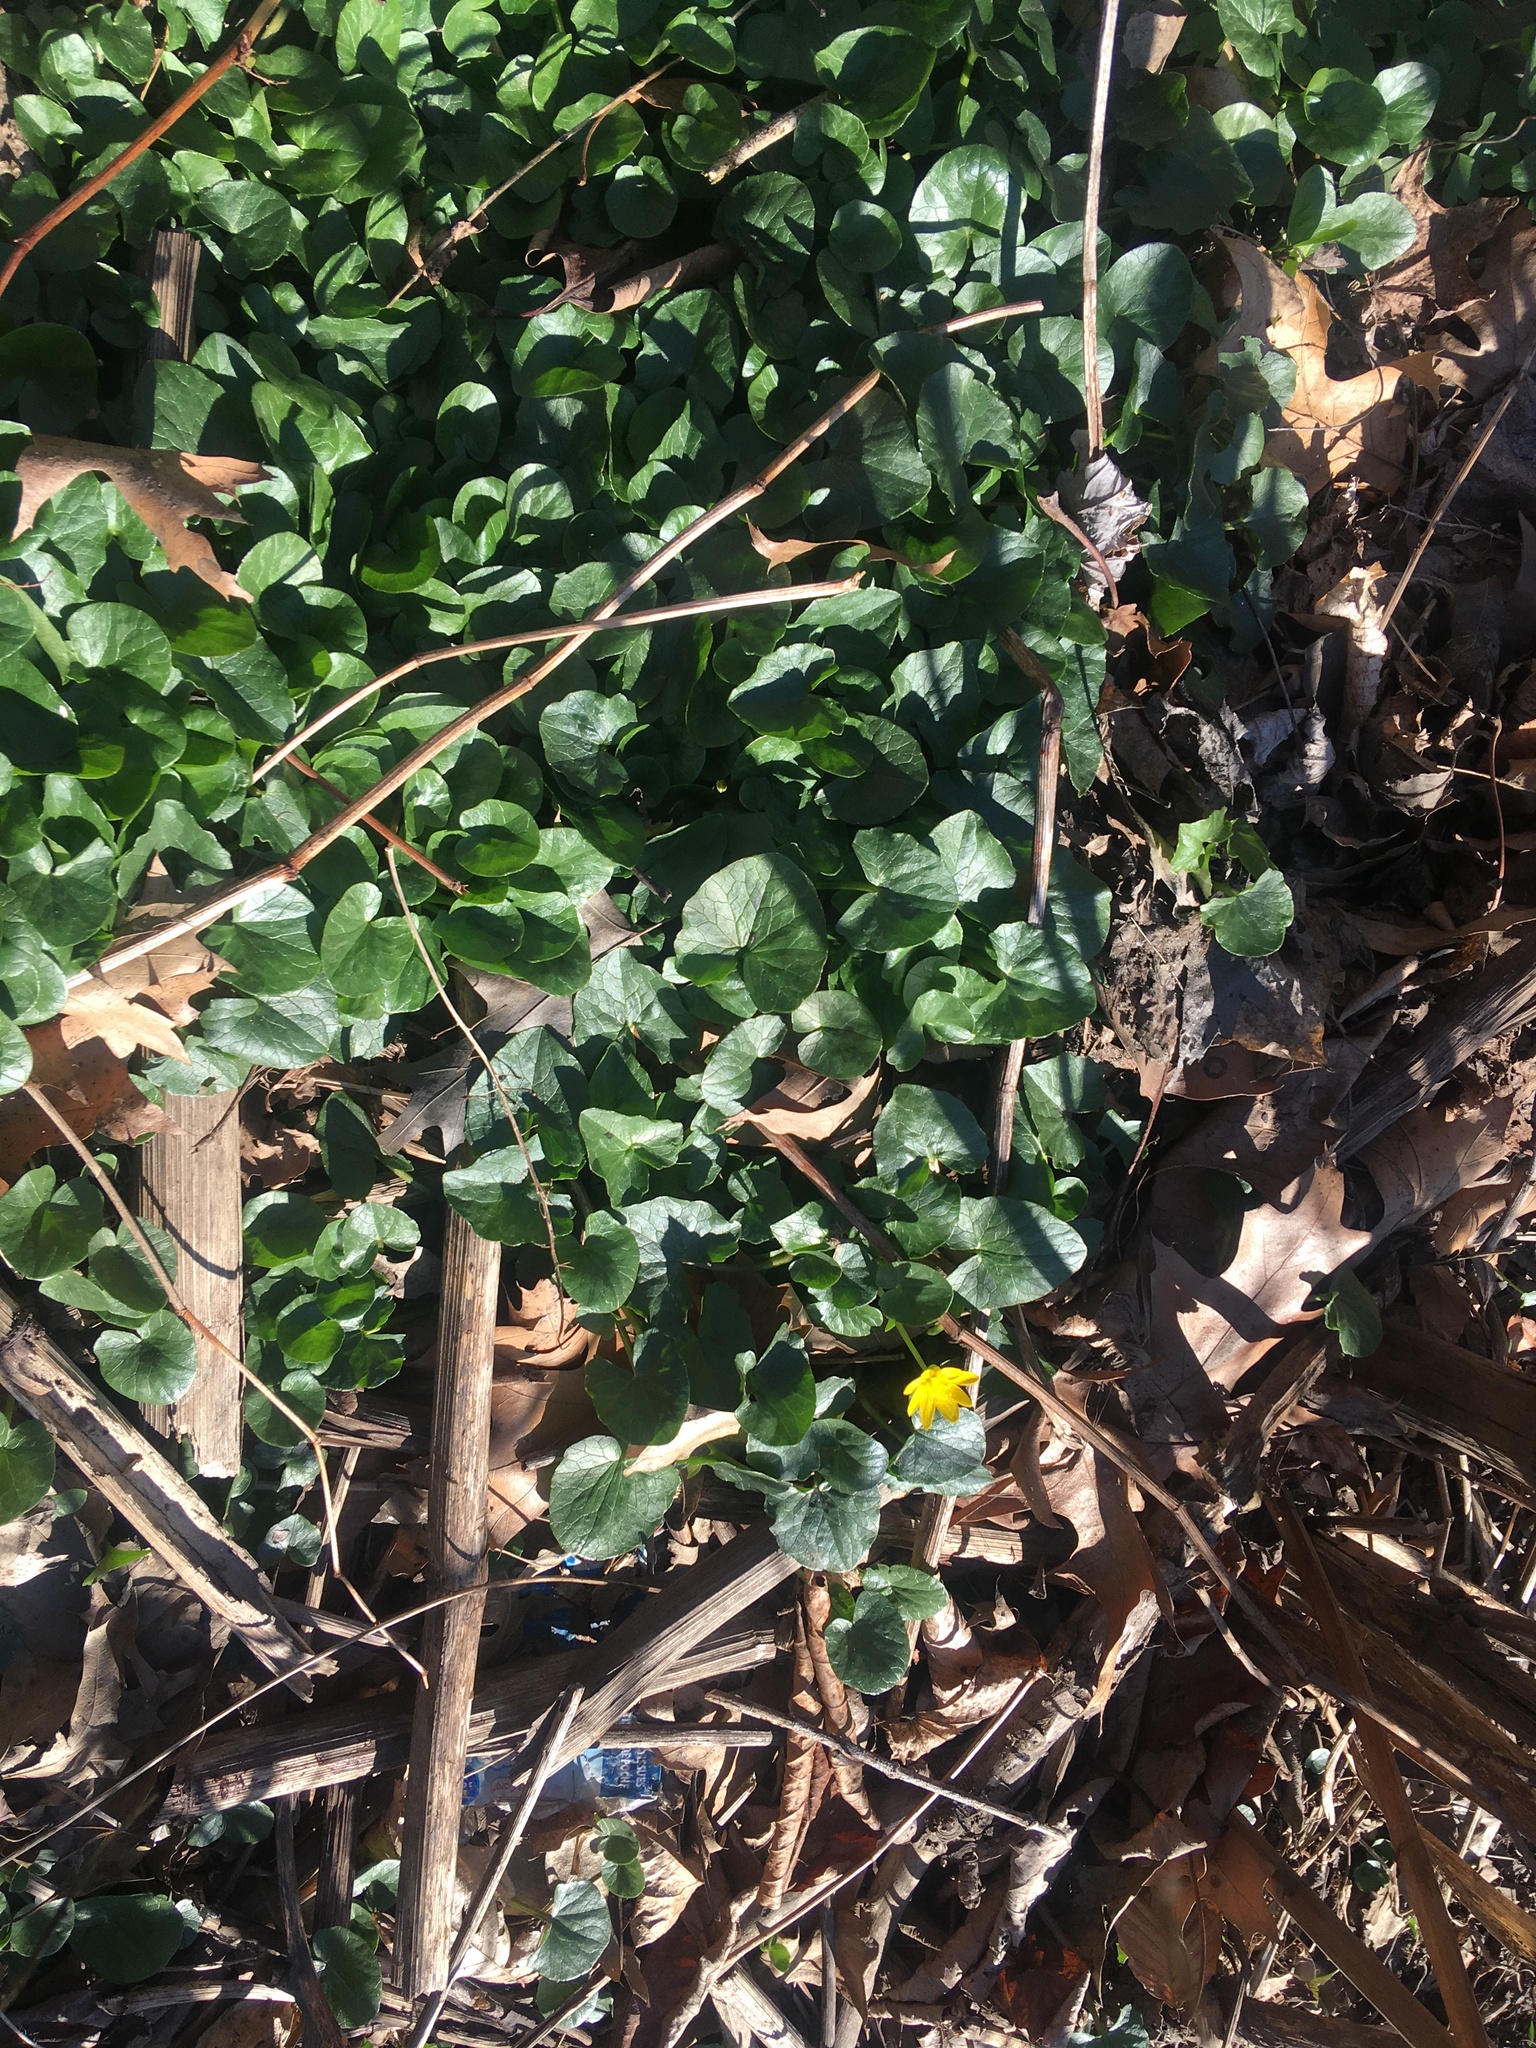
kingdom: Plantae
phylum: Tracheophyta
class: Magnoliopsida
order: Ranunculales
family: Ranunculaceae
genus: Ficaria
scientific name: Ficaria verna
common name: Lesser celandine
